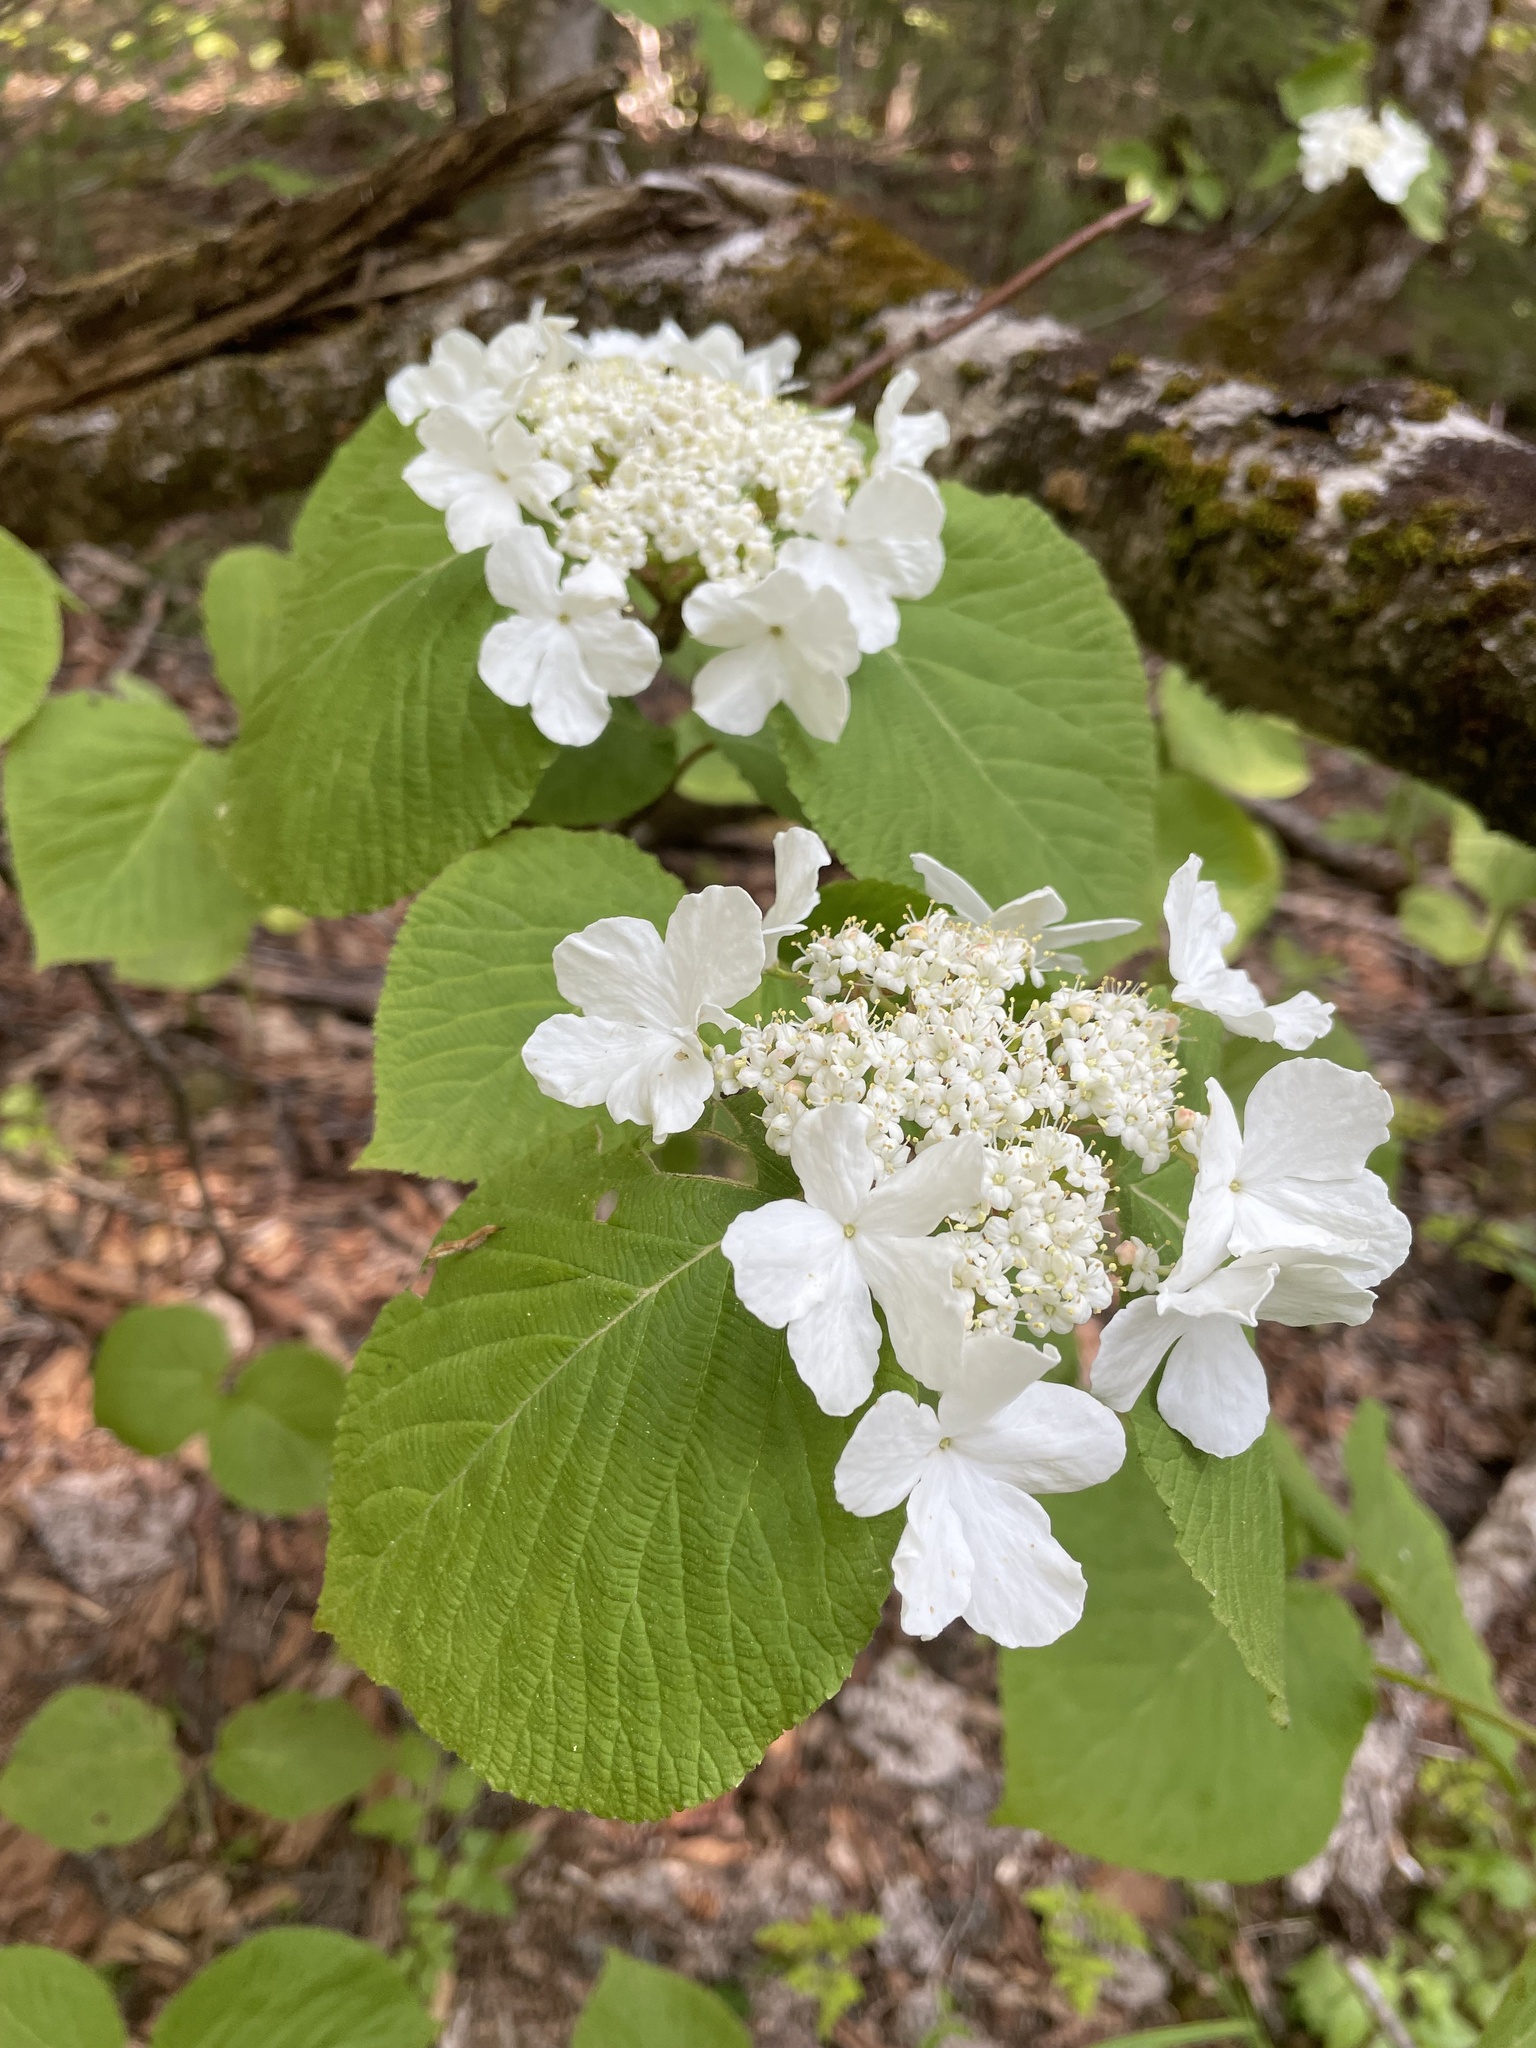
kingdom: Plantae
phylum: Tracheophyta
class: Magnoliopsida
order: Dipsacales
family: Viburnaceae
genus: Viburnum
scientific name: Viburnum lantanoides
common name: Hobblebush
